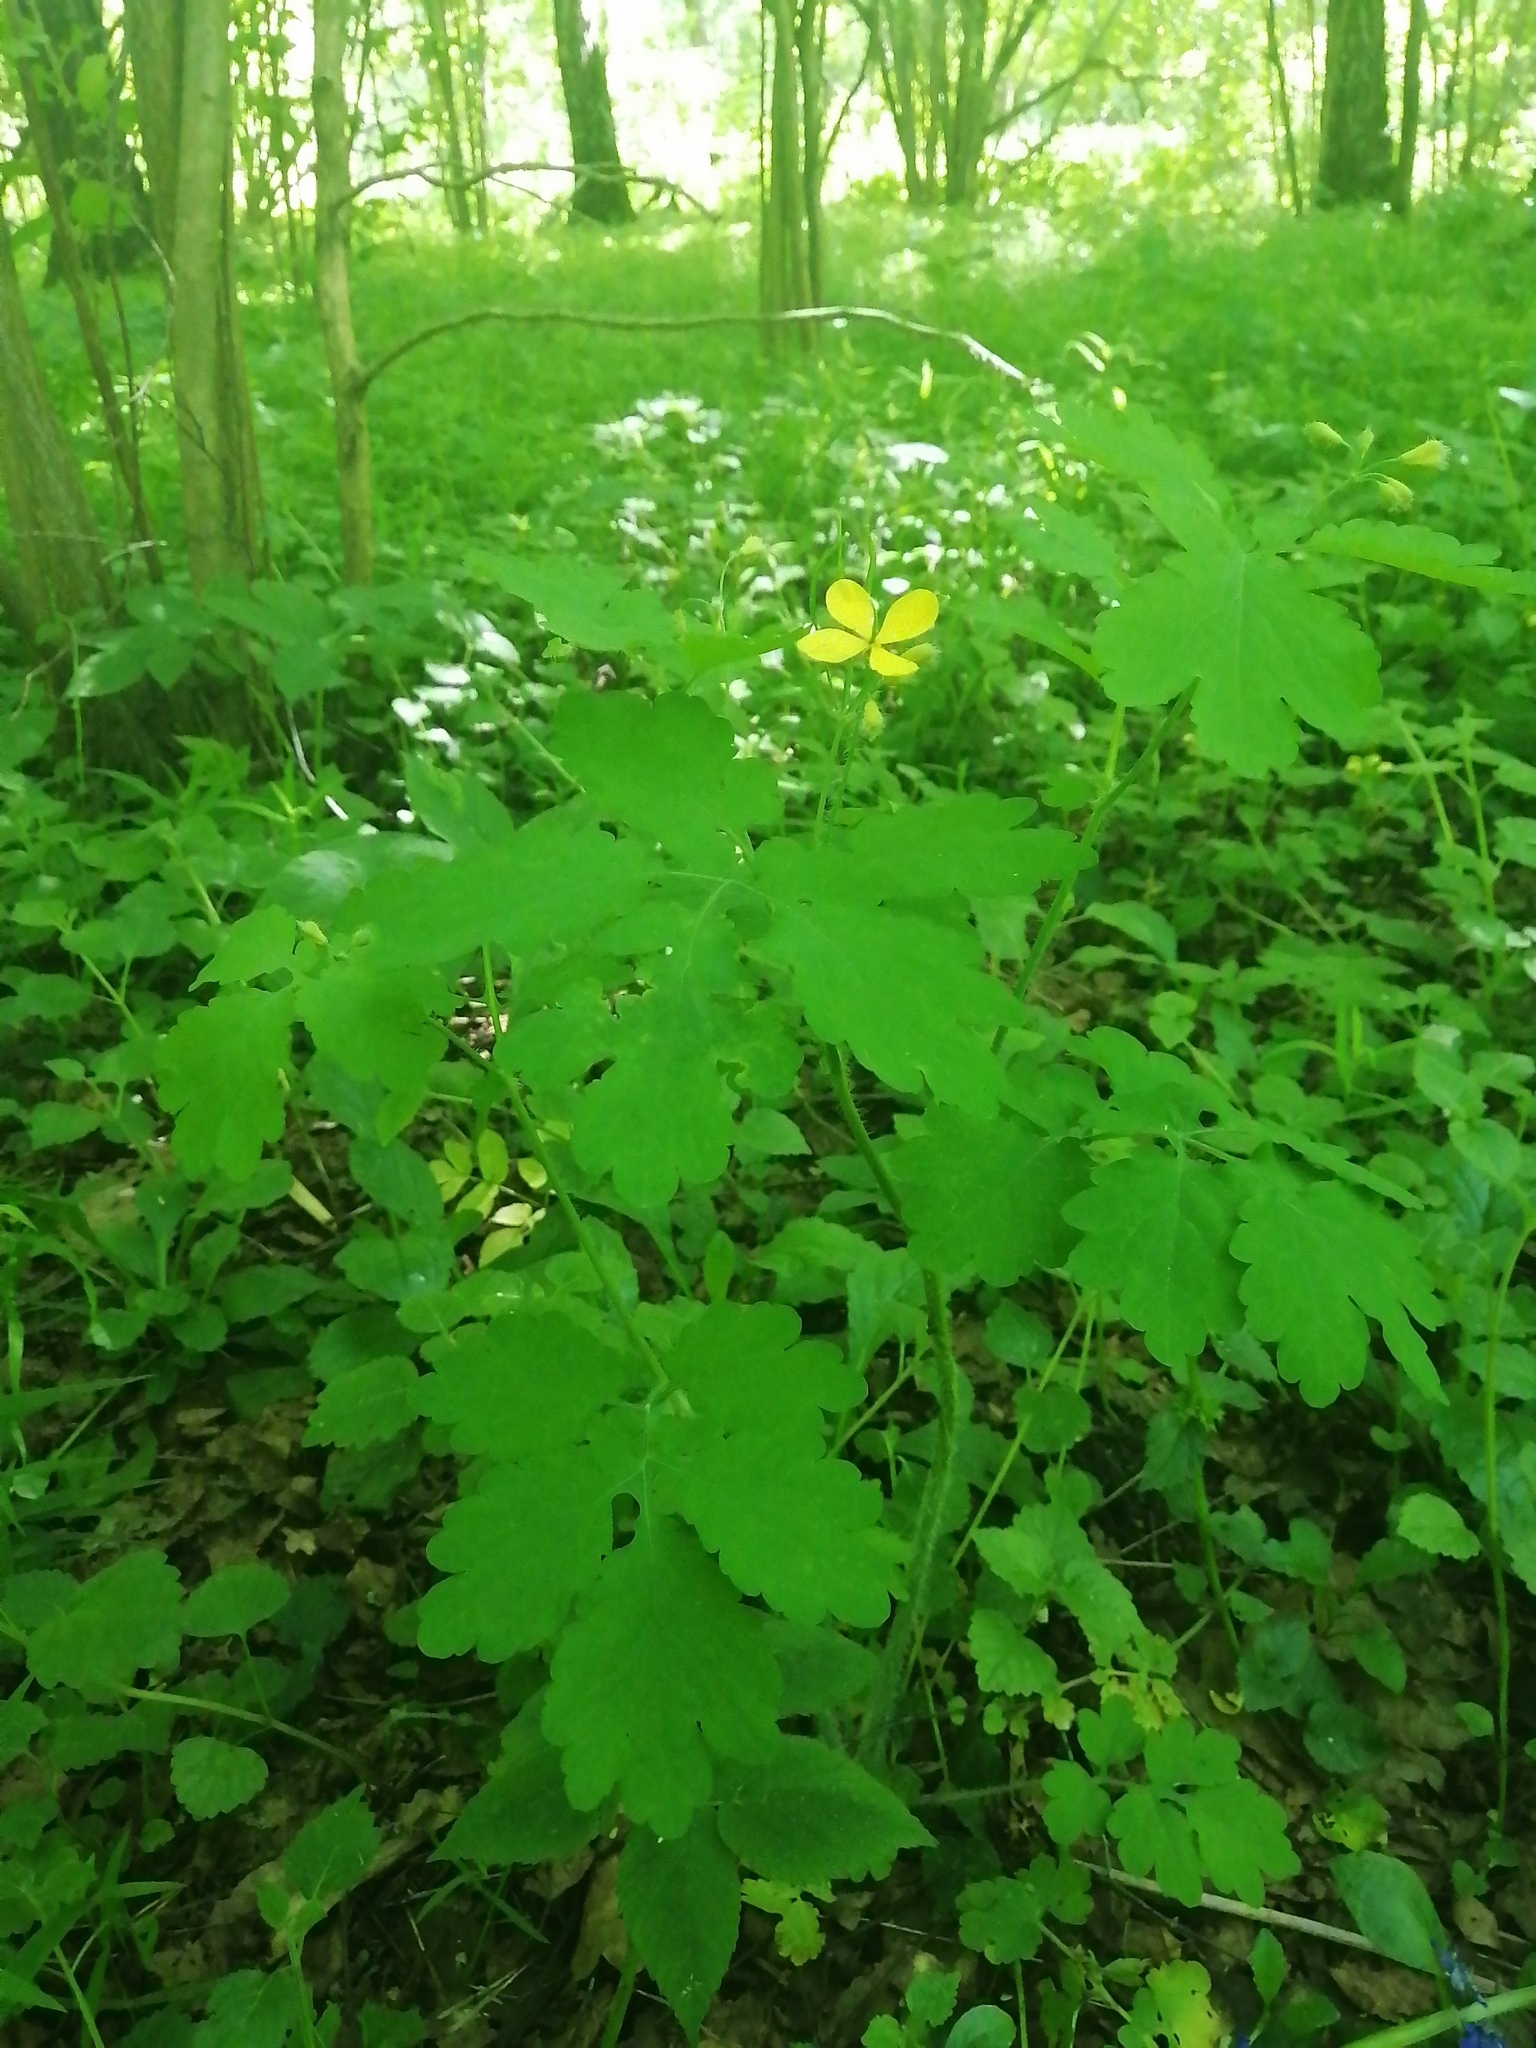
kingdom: Plantae
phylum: Tracheophyta
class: Magnoliopsida
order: Ranunculales
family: Papaveraceae
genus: Chelidonium
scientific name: Chelidonium majus
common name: Greater celandine
